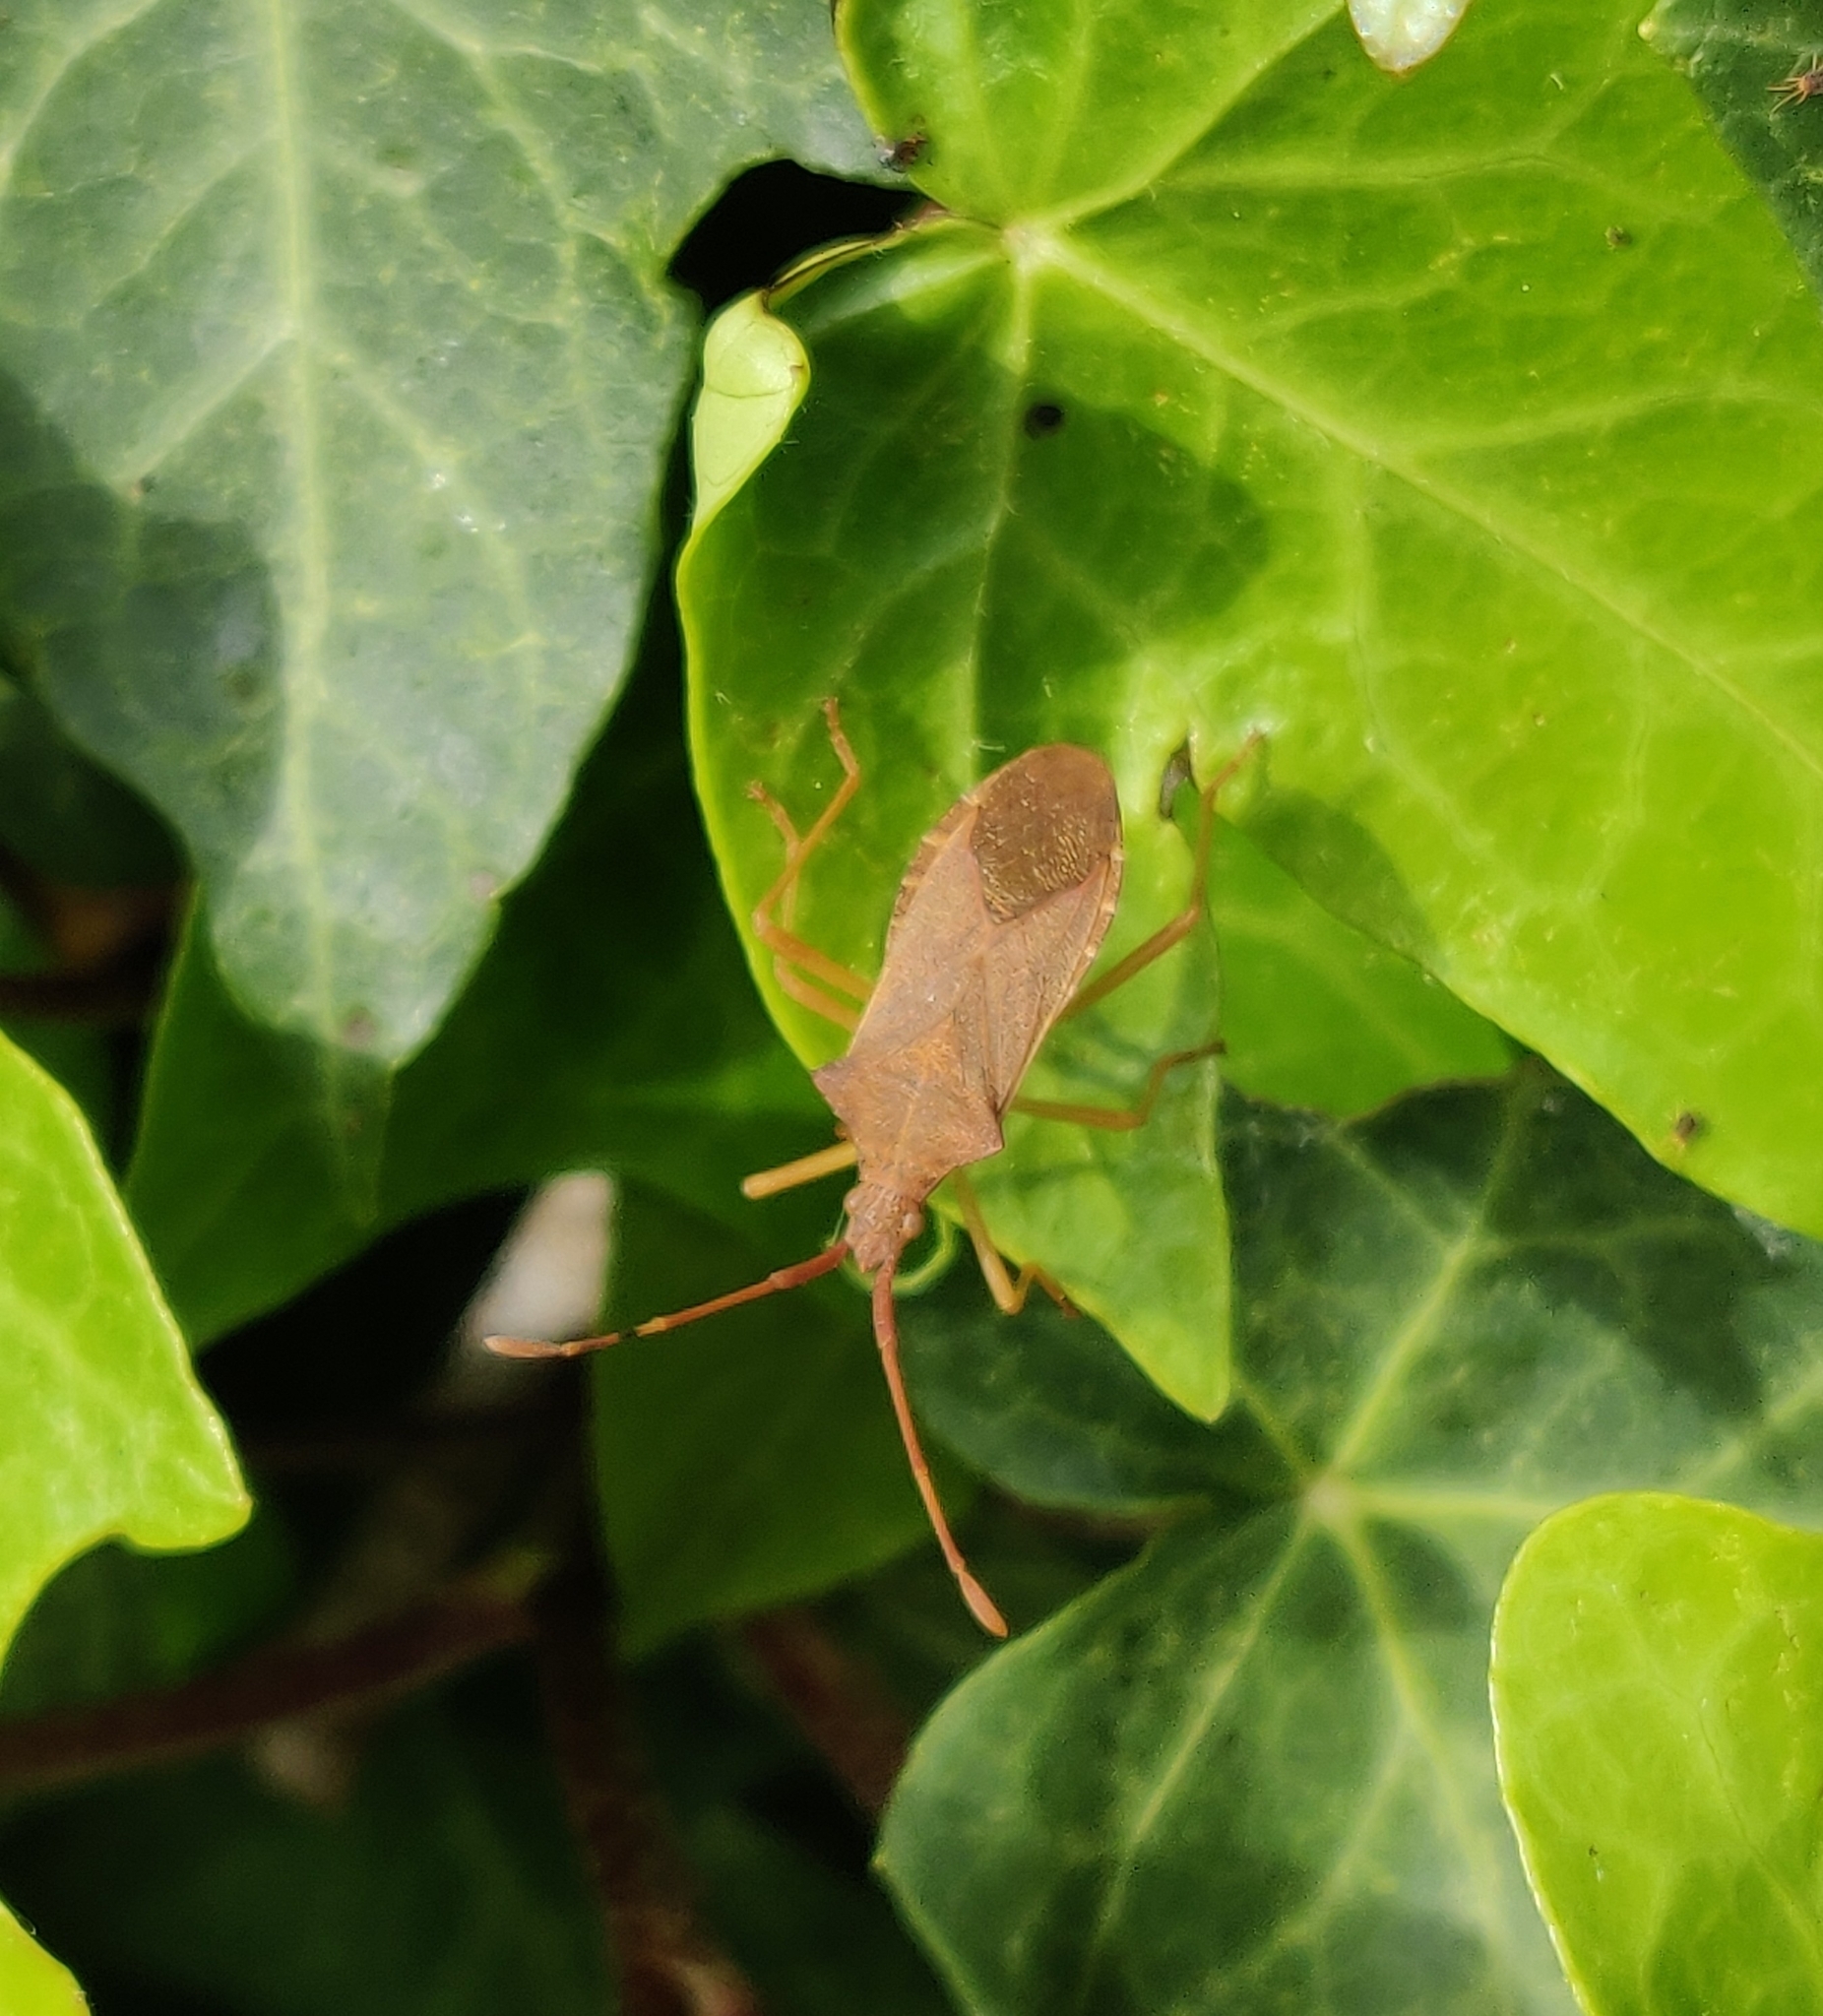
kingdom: Animalia
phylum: Arthropoda
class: Insecta
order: Hemiptera
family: Coreidae
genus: Gonocerus
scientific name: Gonocerus acuteangulatus
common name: Box bug
